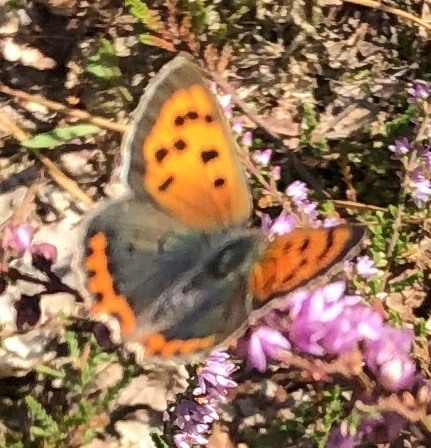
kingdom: Animalia
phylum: Arthropoda
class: Insecta
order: Lepidoptera
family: Lycaenidae
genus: Lycaena
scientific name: Lycaena phlaeas
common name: Small copper
